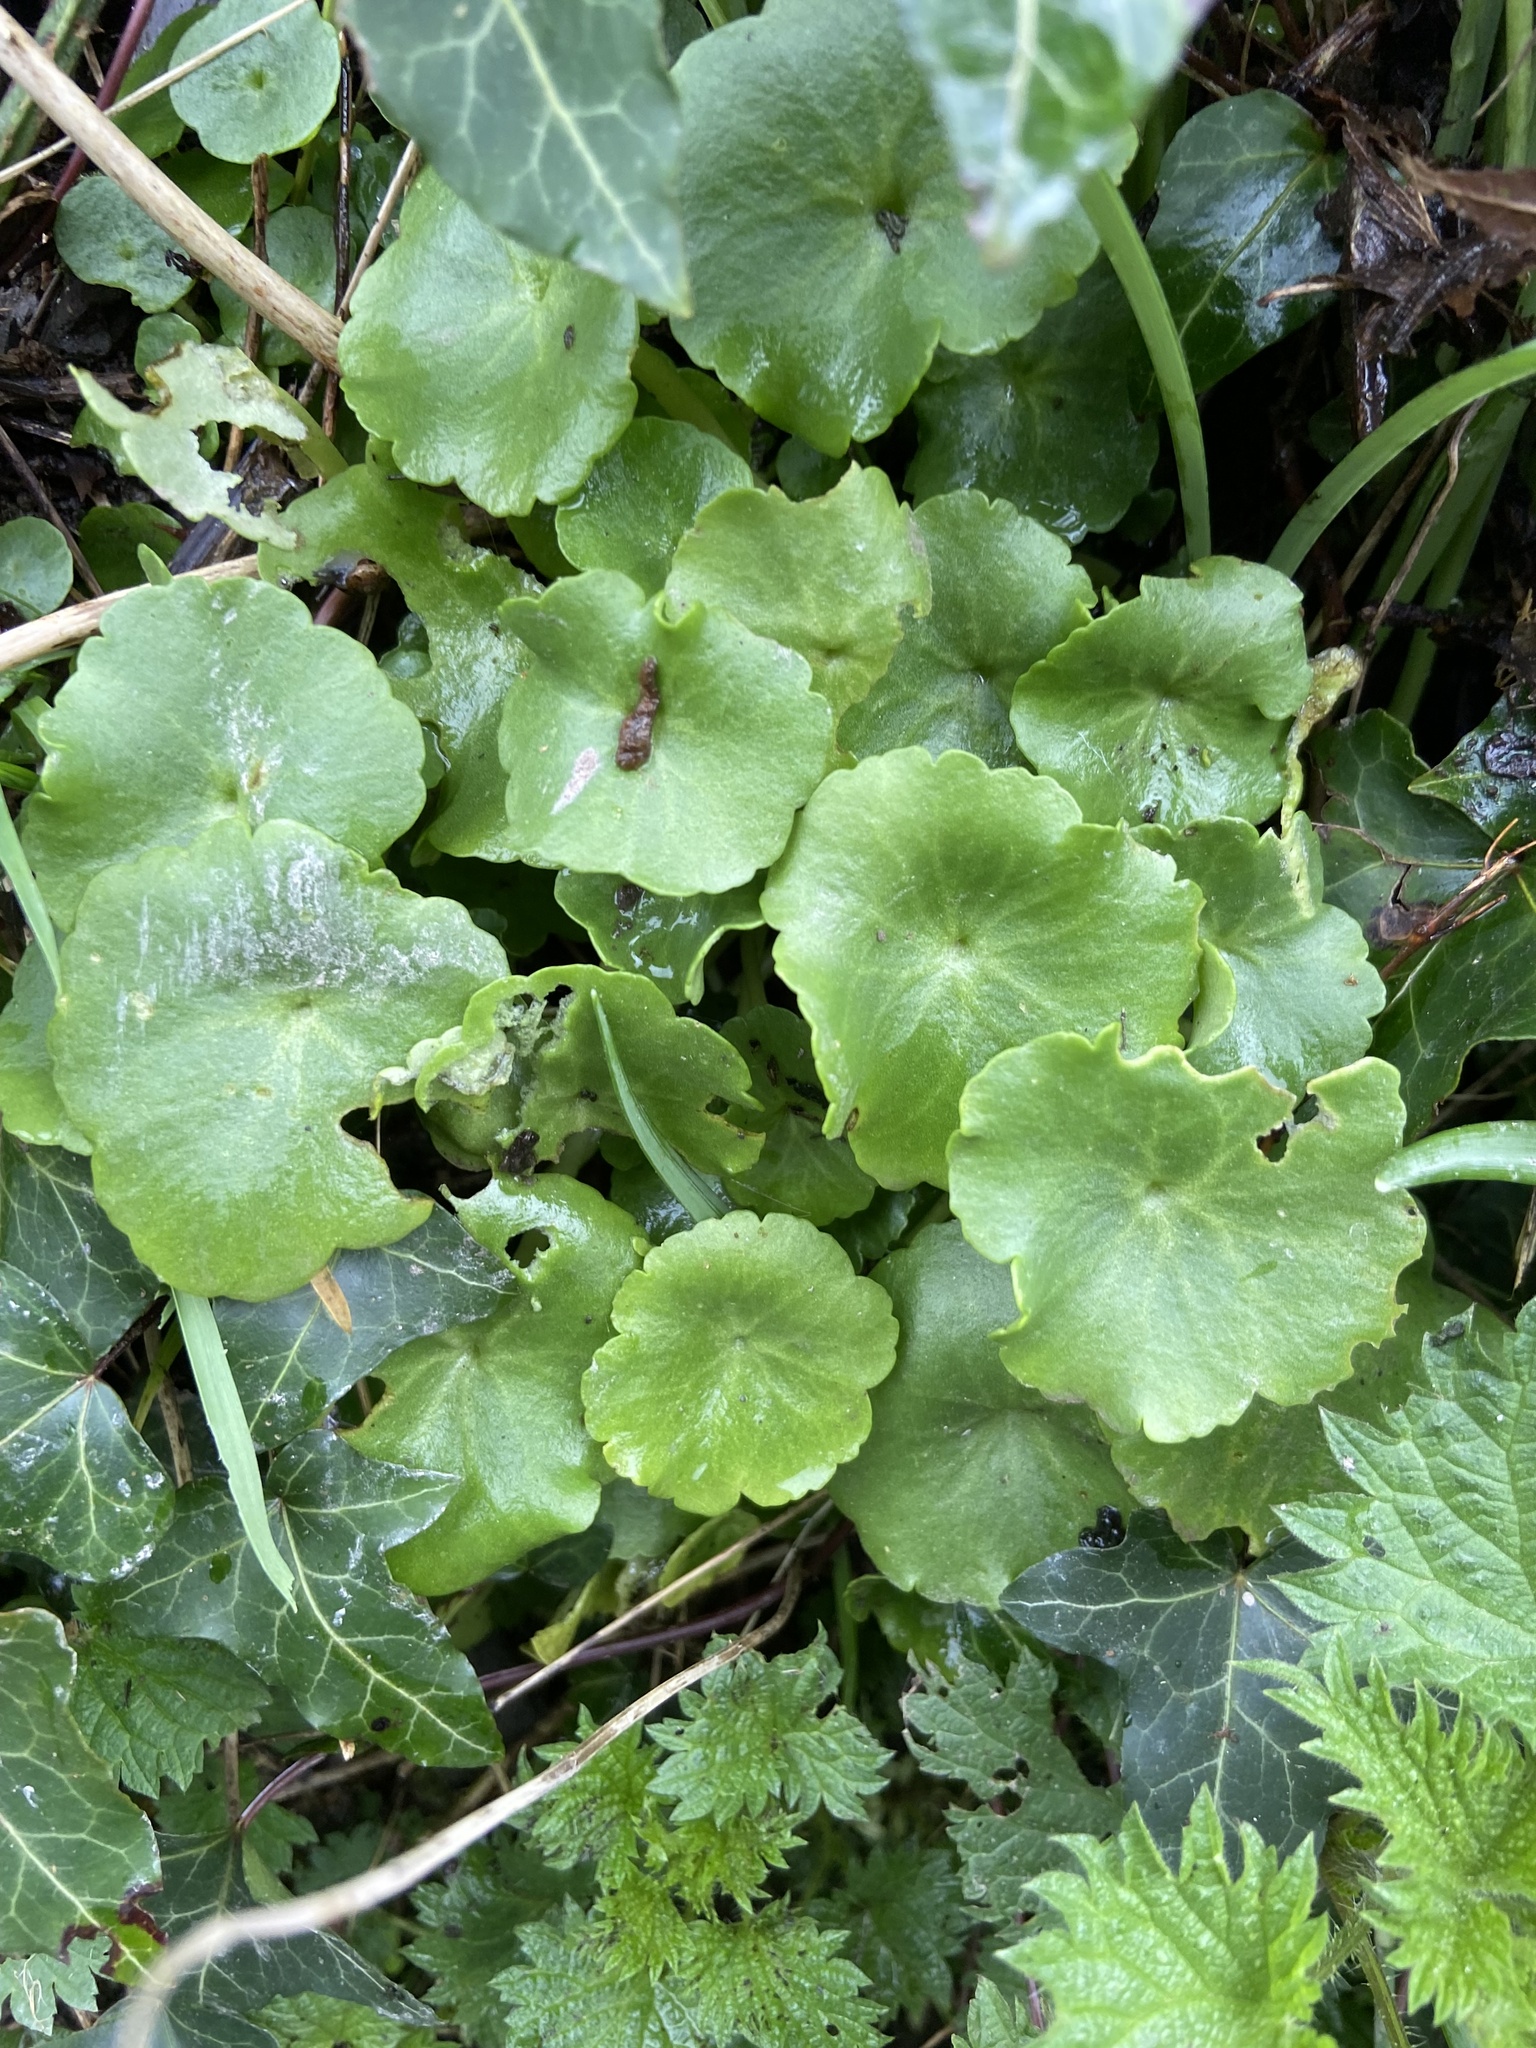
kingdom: Plantae
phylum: Tracheophyta
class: Magnoliopsida
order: Saxifragales
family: Crassulaceae
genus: Umbilicus
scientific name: Umbilicus rupestris
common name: Navelwort
